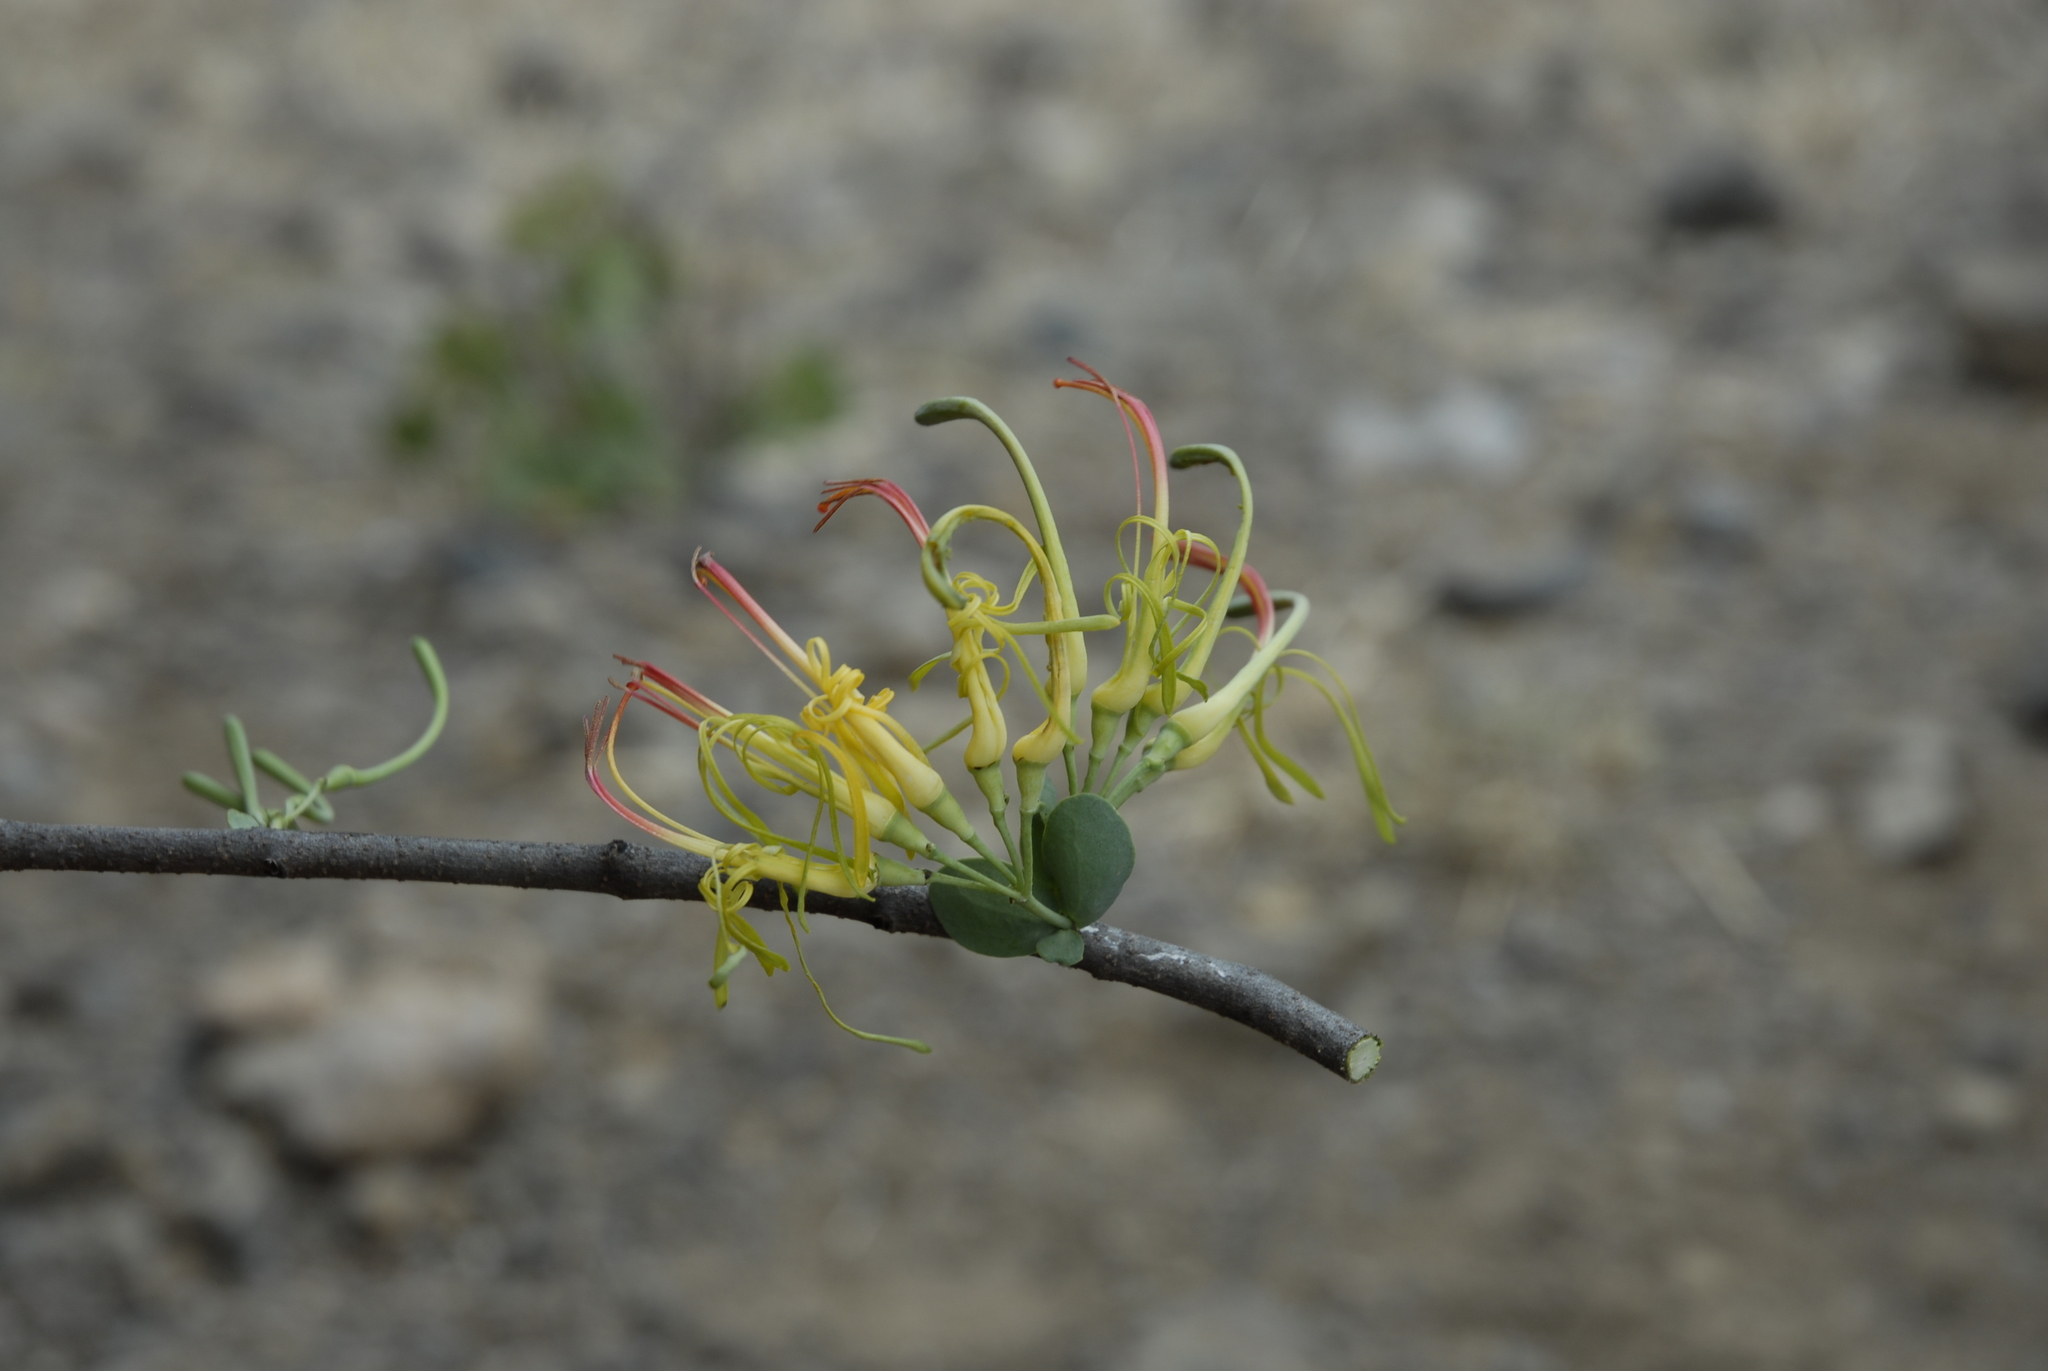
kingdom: Plantae
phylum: Tracheophyta
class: Magnoliopsida
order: Santalales
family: Loranthaceae
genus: Plicosepalus
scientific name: Plicosepalus sagittifolius
